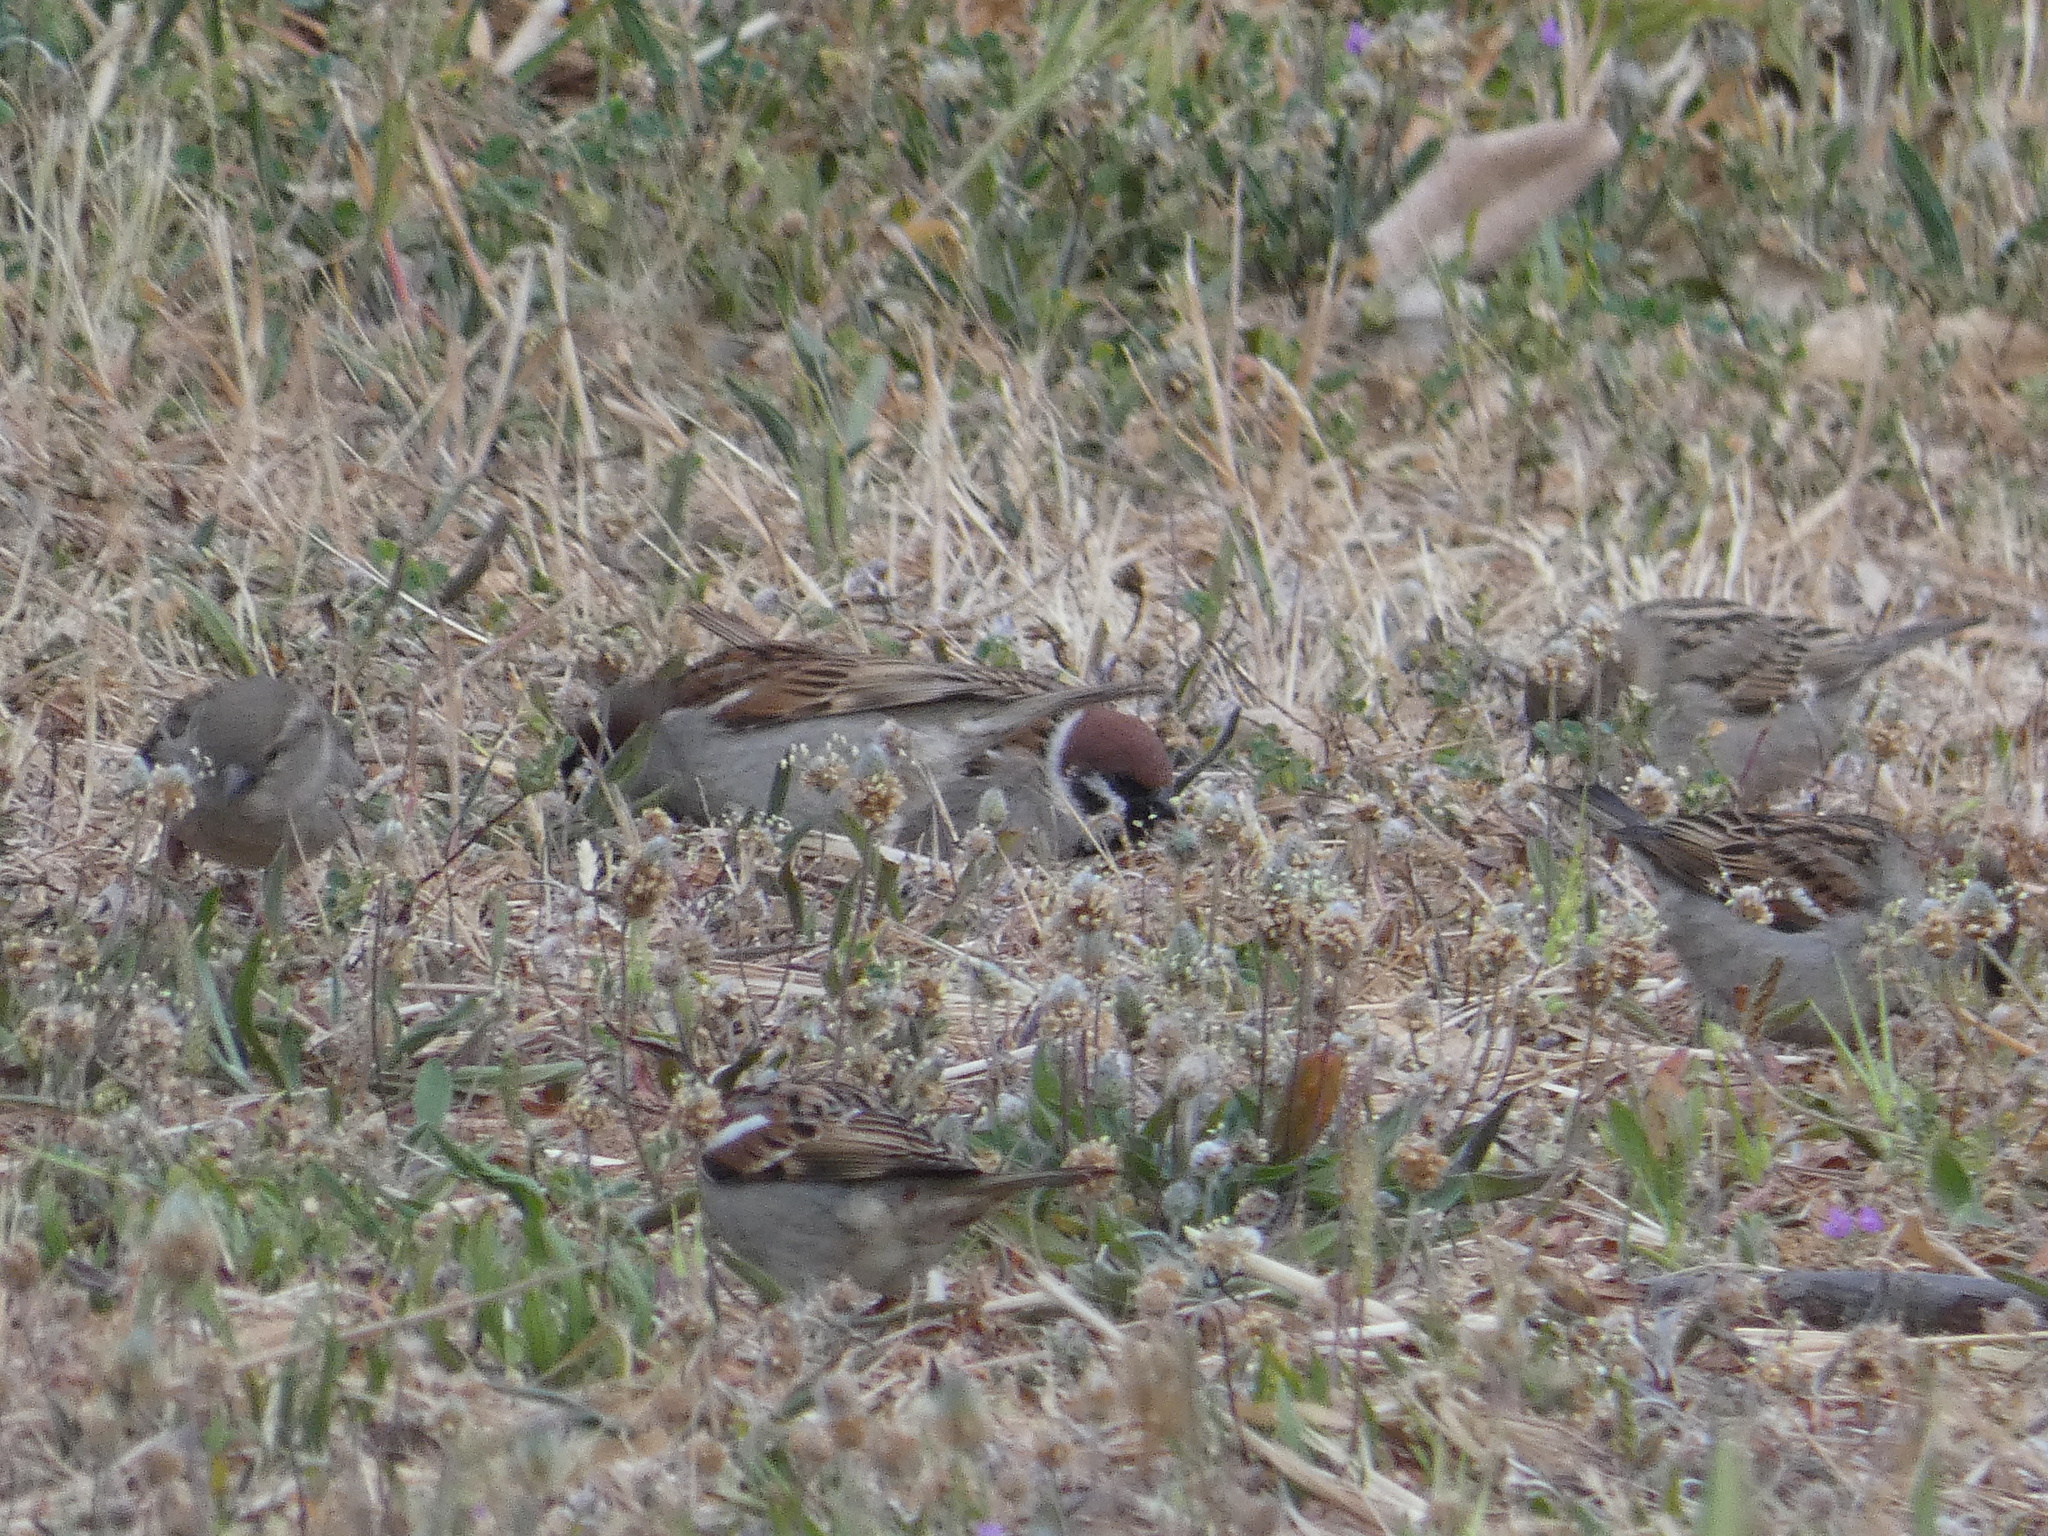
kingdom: Animalia
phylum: Chordata
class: Aves
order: Passeriformes
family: Passeridae
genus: Passer
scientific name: Passer montanus
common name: Eurasian tree sparrow
